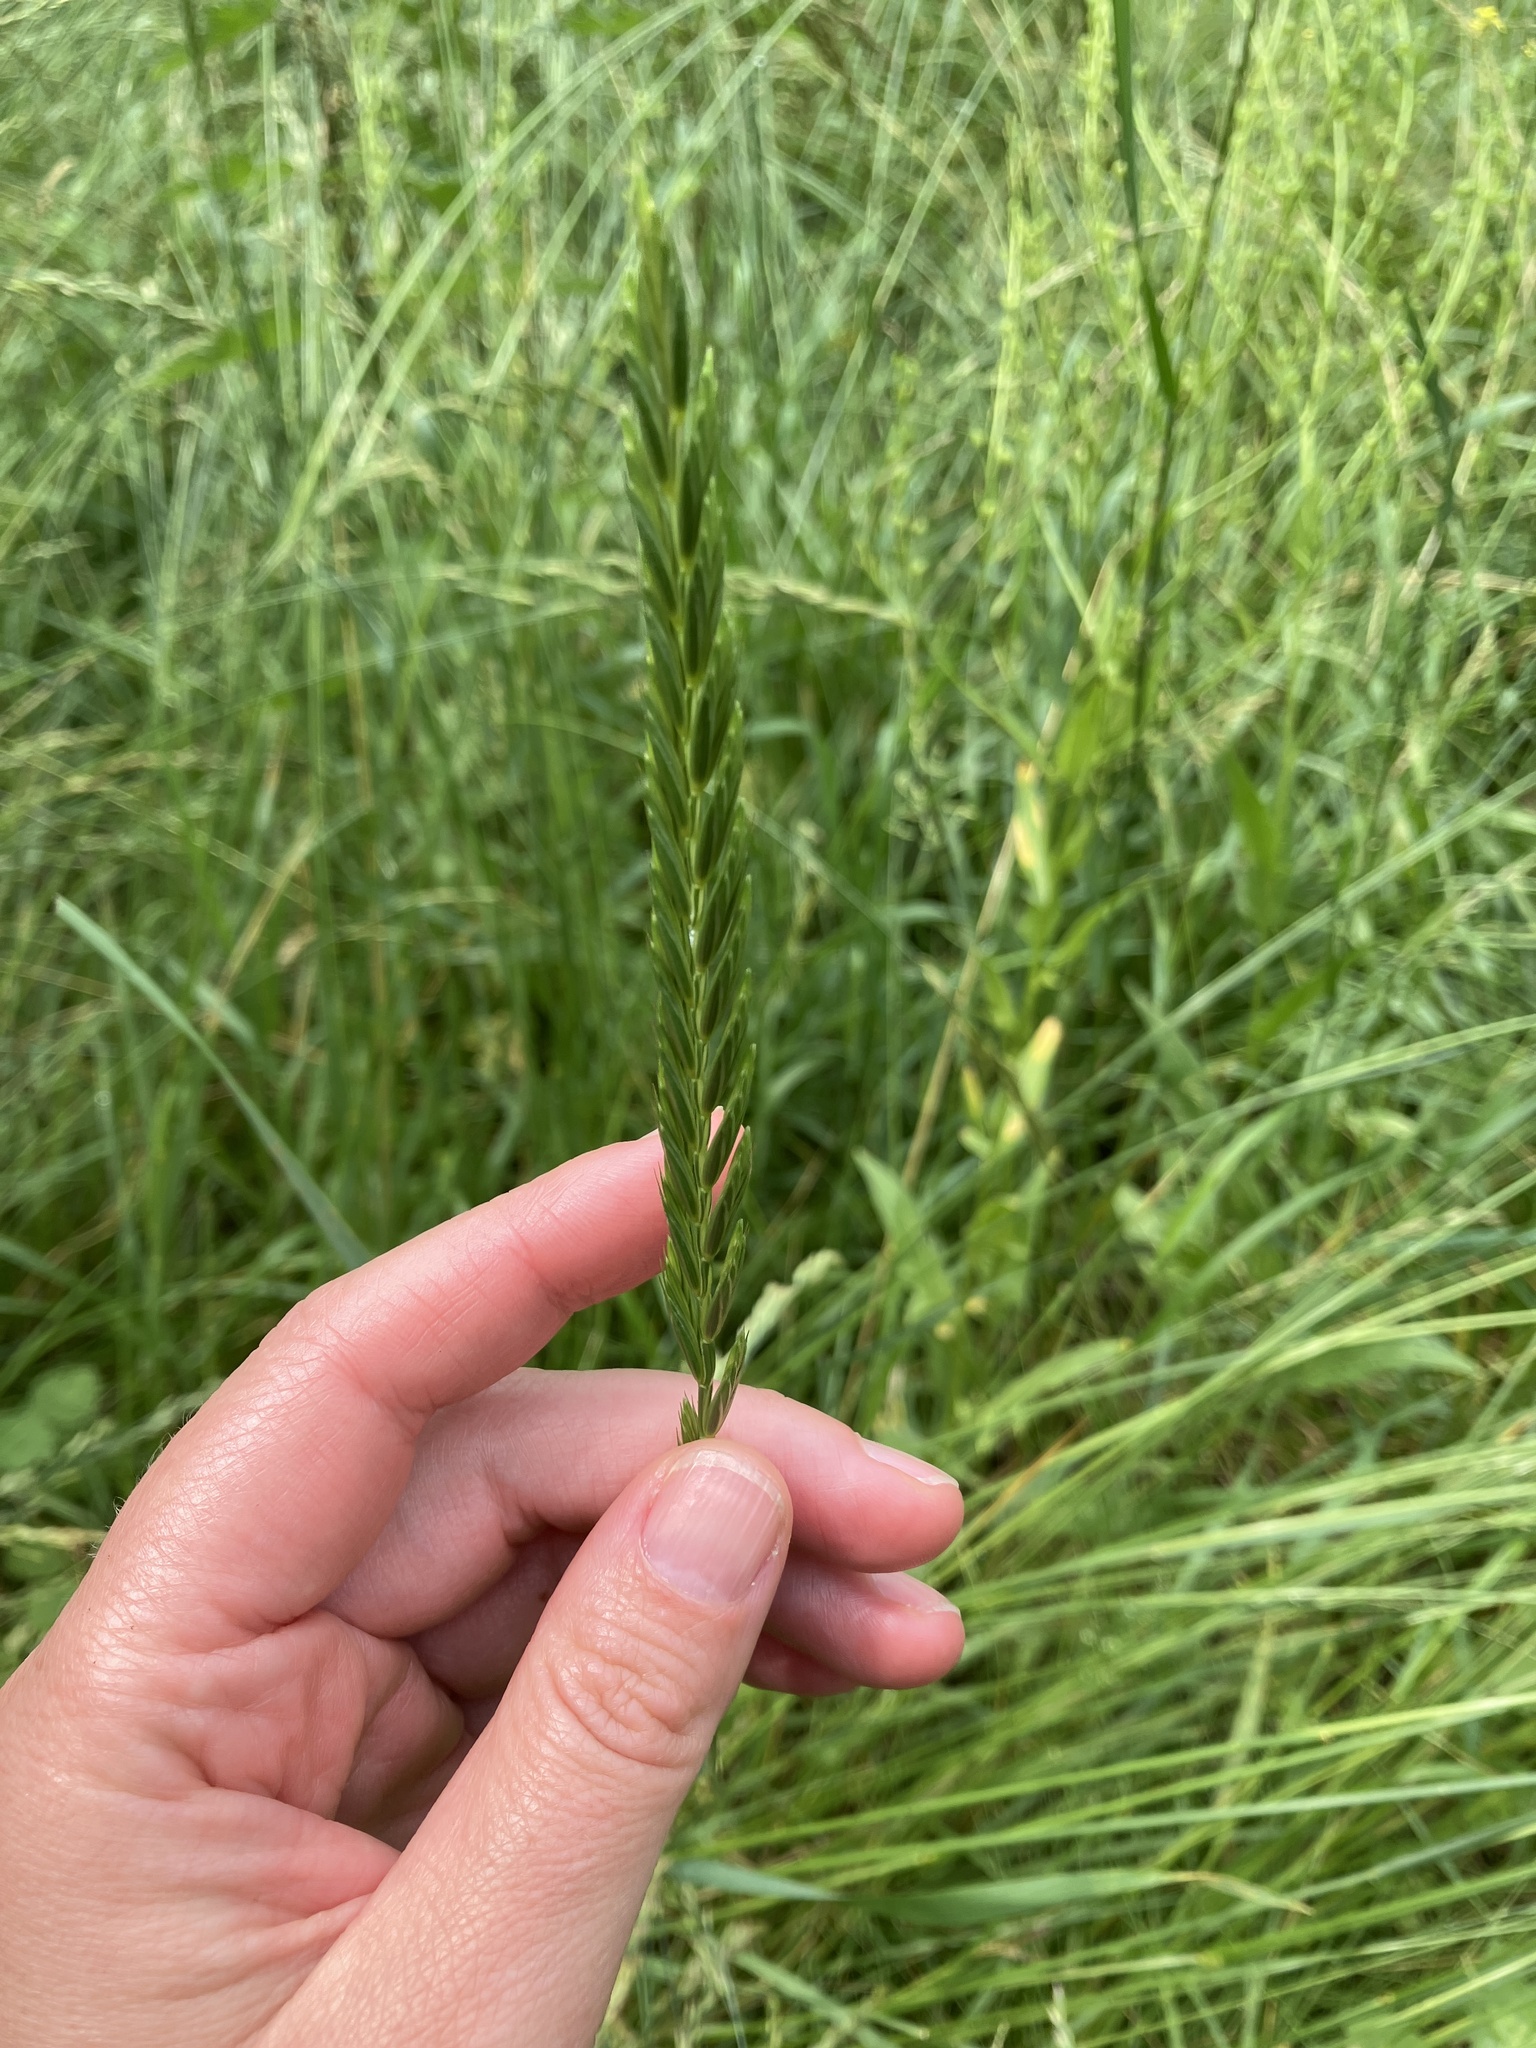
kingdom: Plantae
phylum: Tracheophyta
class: Liliopsida
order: Poales
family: Poaceae
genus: Elymus
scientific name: Elymus repens
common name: Quackgrass
